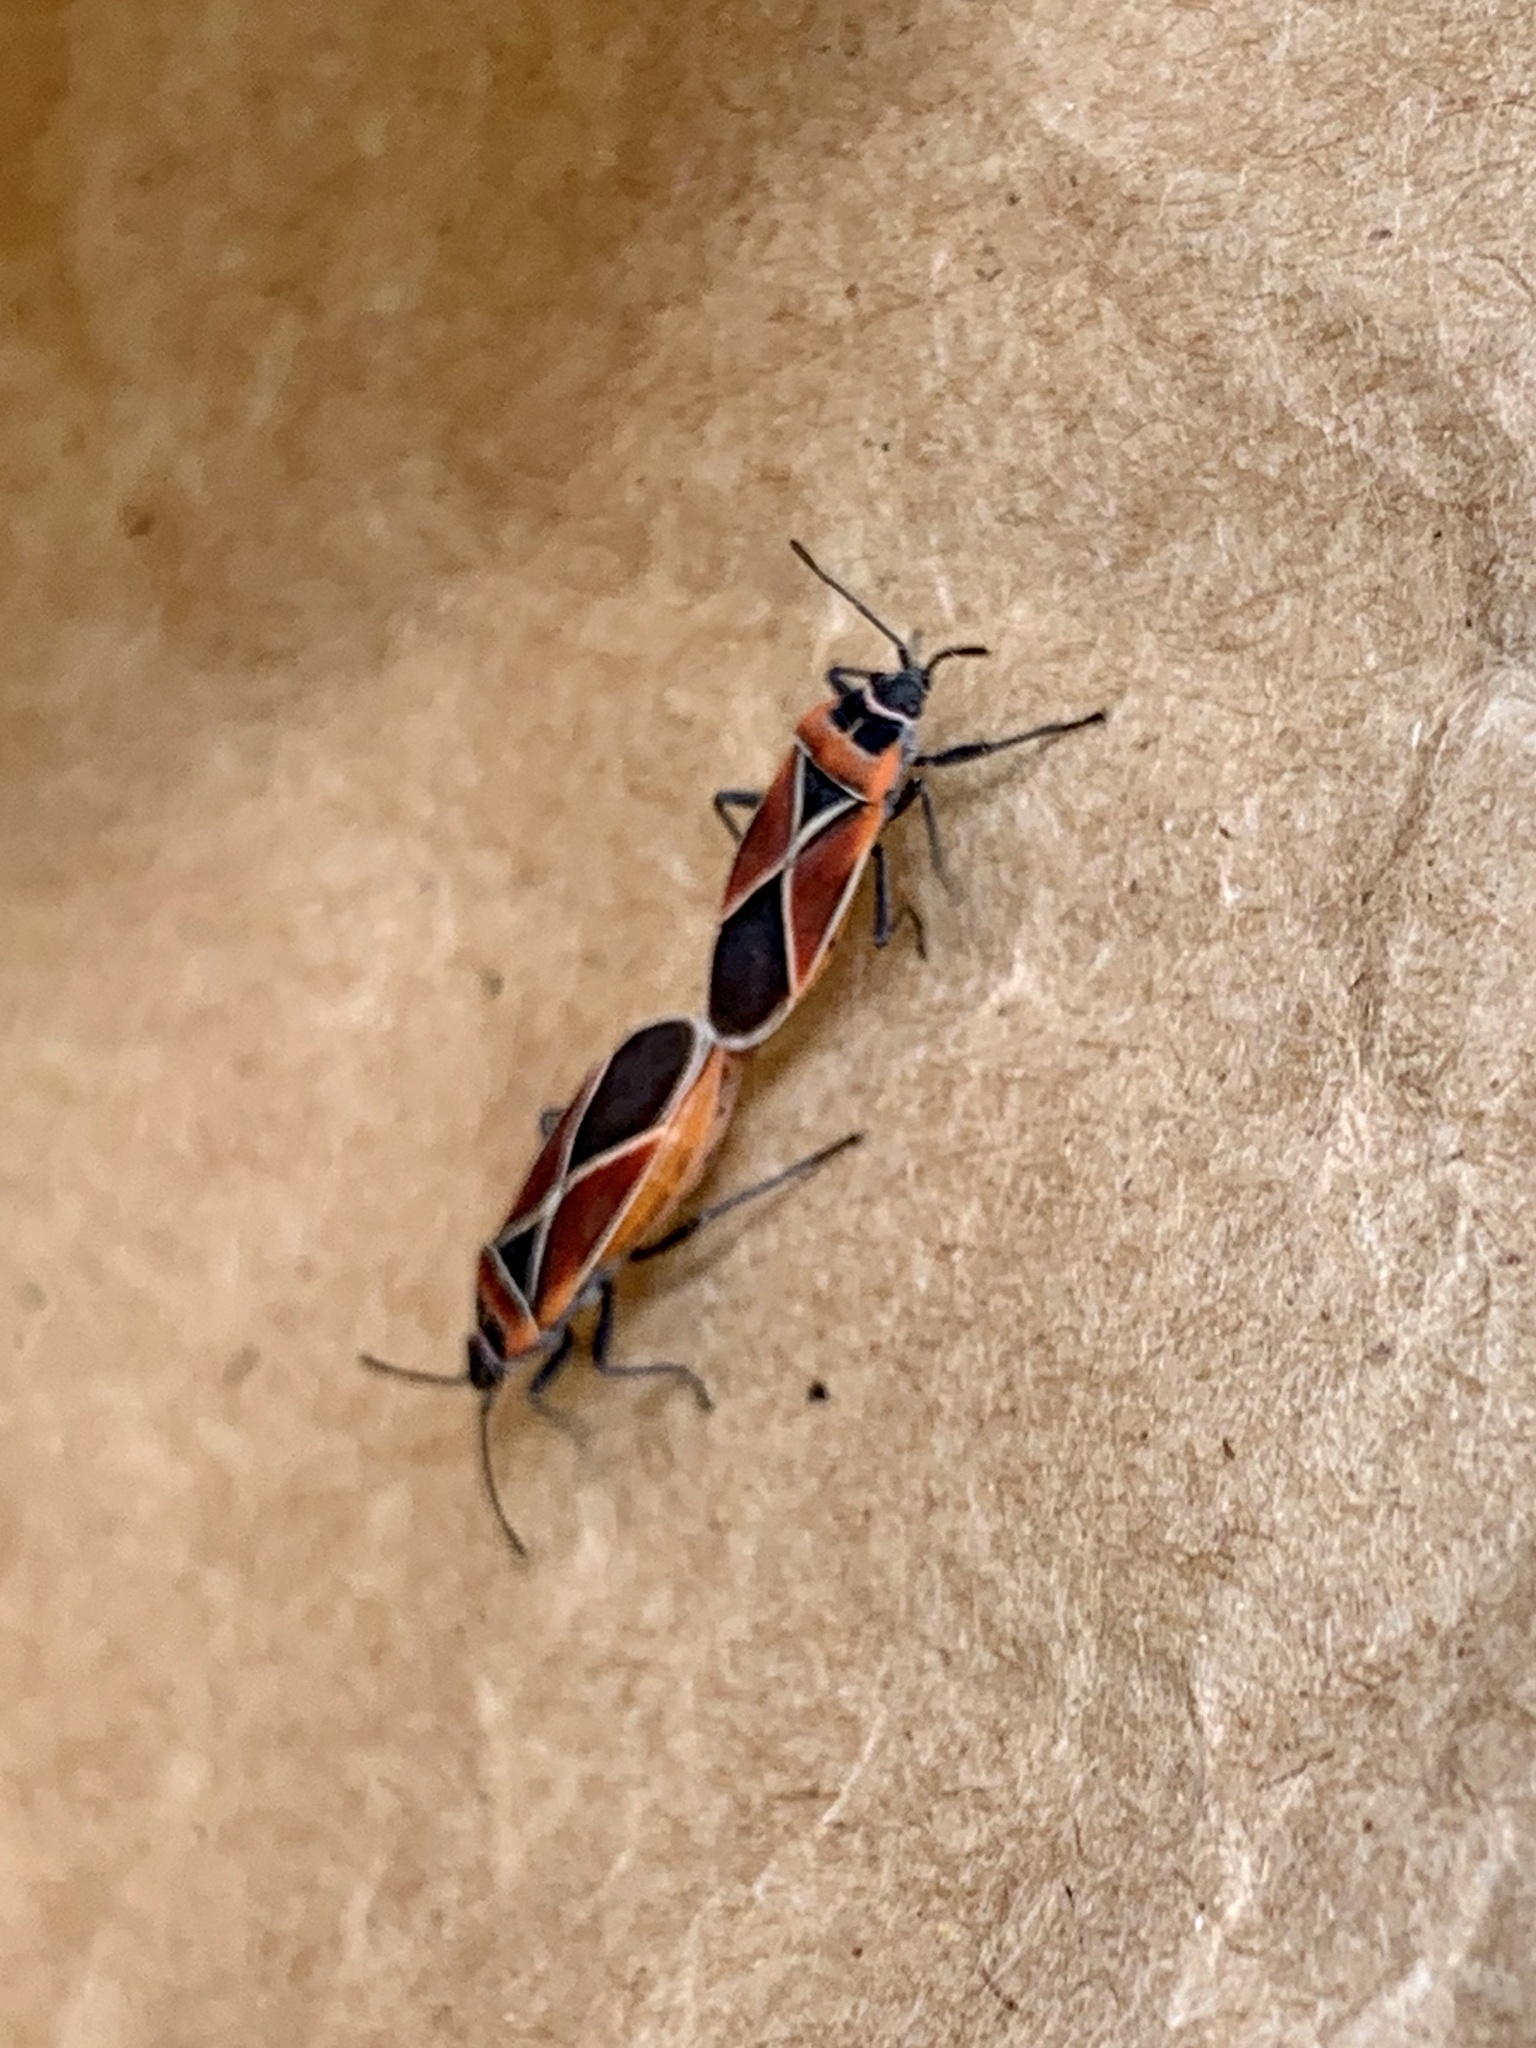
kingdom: Animalia
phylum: Arthropoda
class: Insecta
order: Hemiptera
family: Lygaeidae
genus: Neacoryphus
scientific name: Neacoryphus bicrucis
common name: Lygaeid bug
